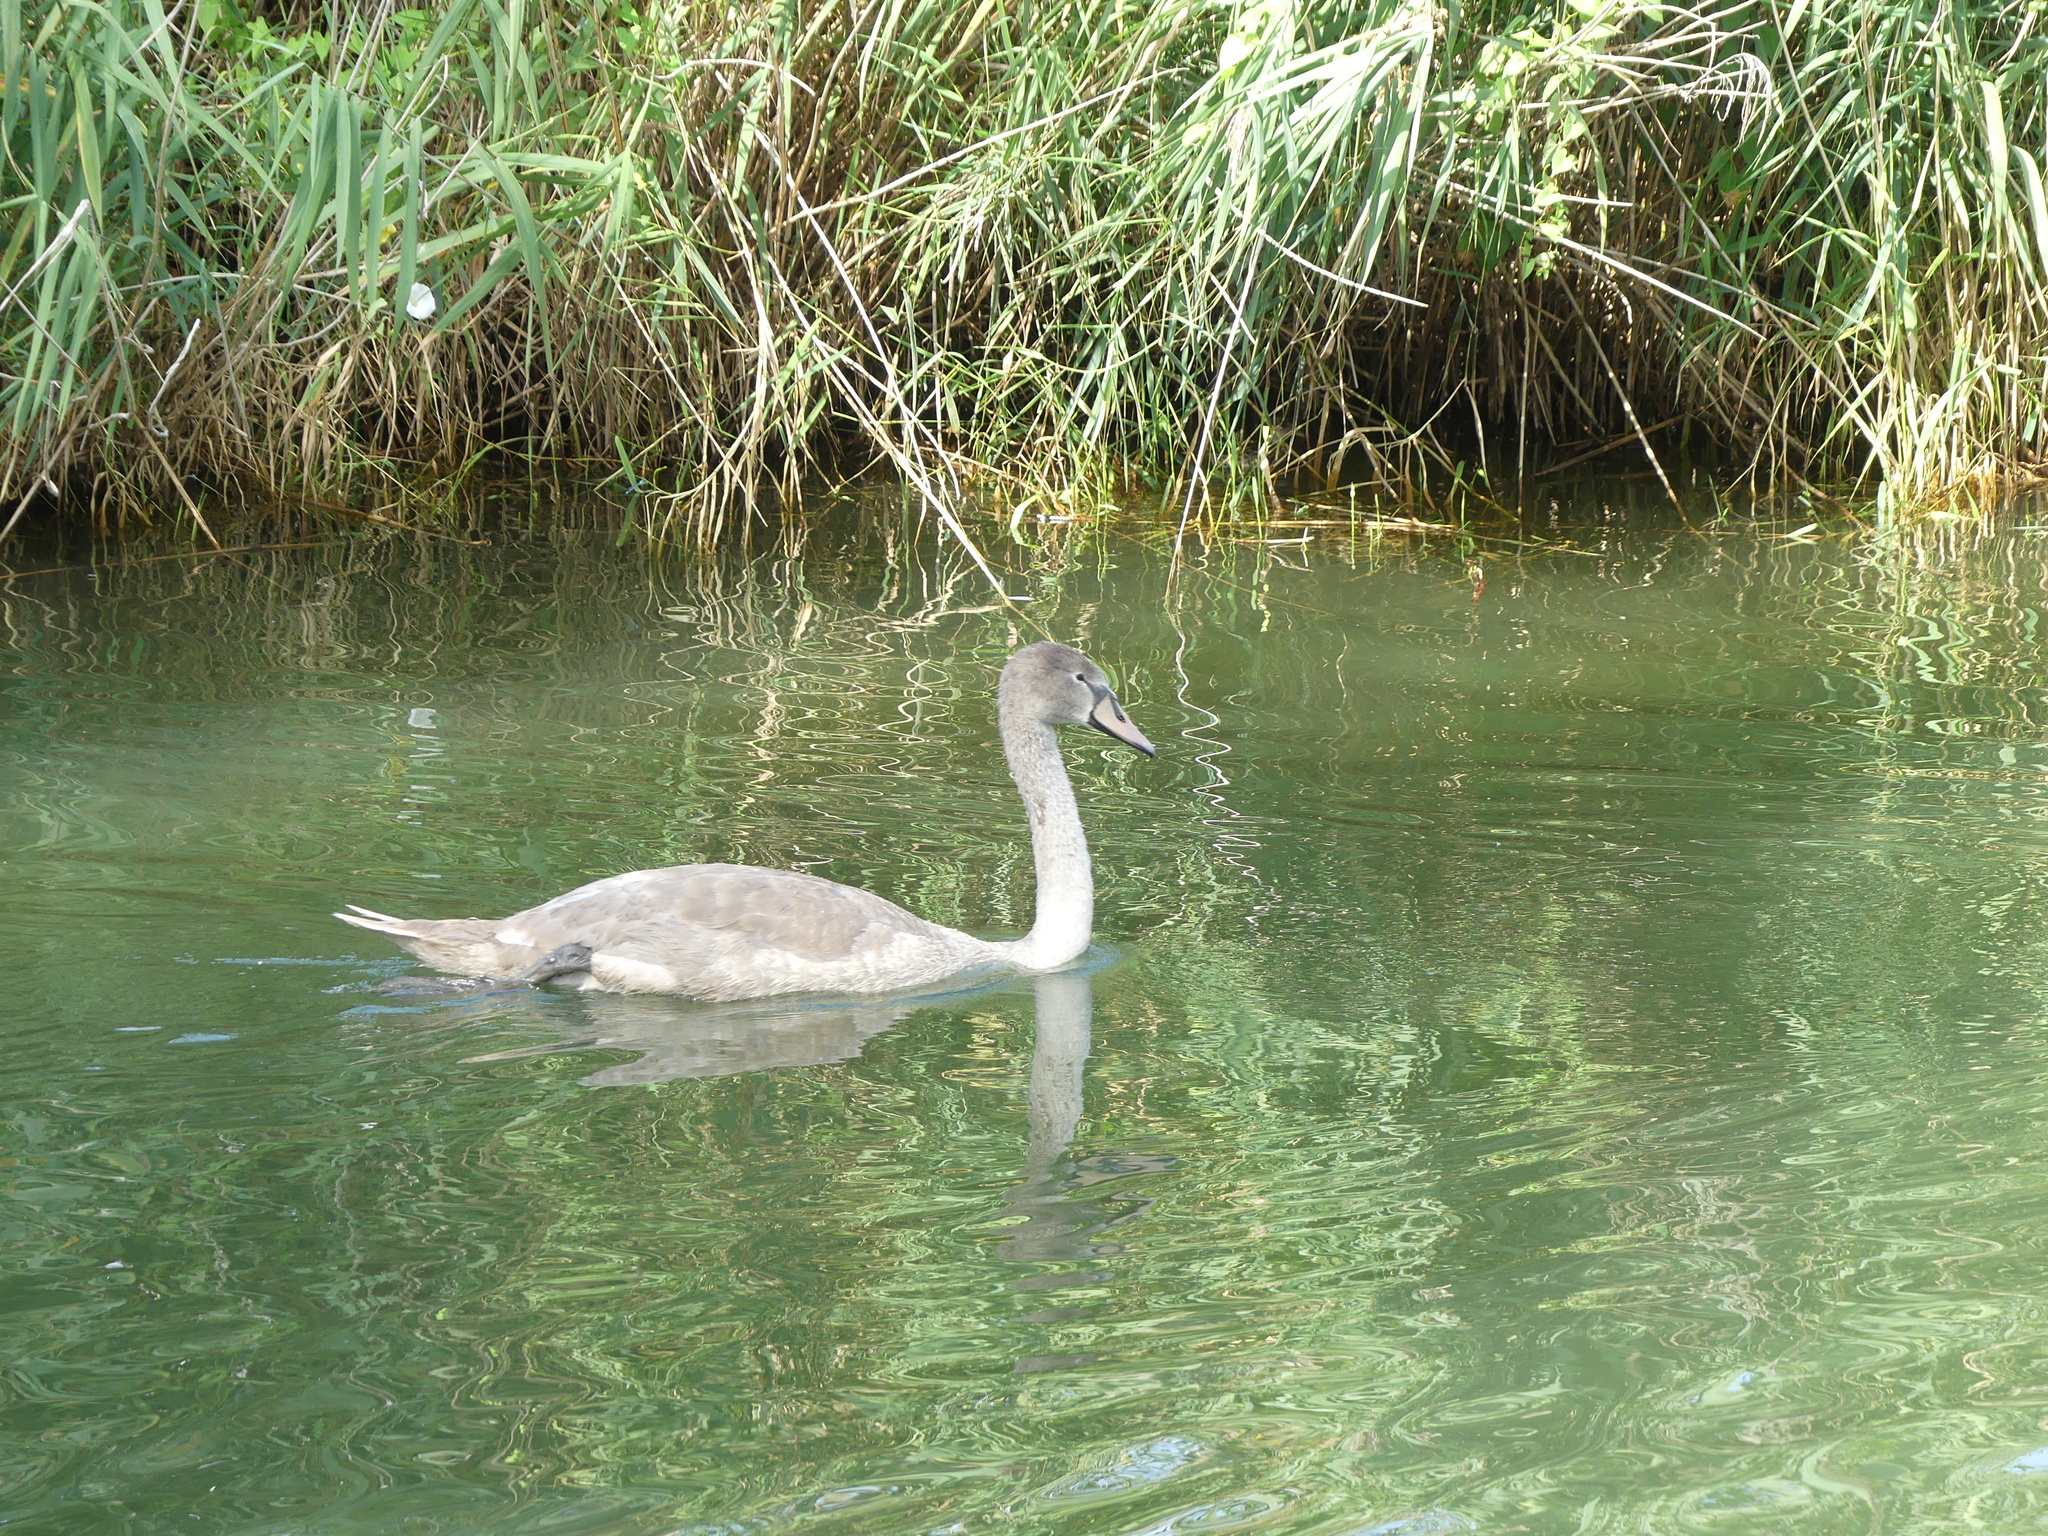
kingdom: Animalia
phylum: Chordata
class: Aves
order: Anseriformes
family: Anatidae
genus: Cygnus
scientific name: Cygnus olor
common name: Mute swan
